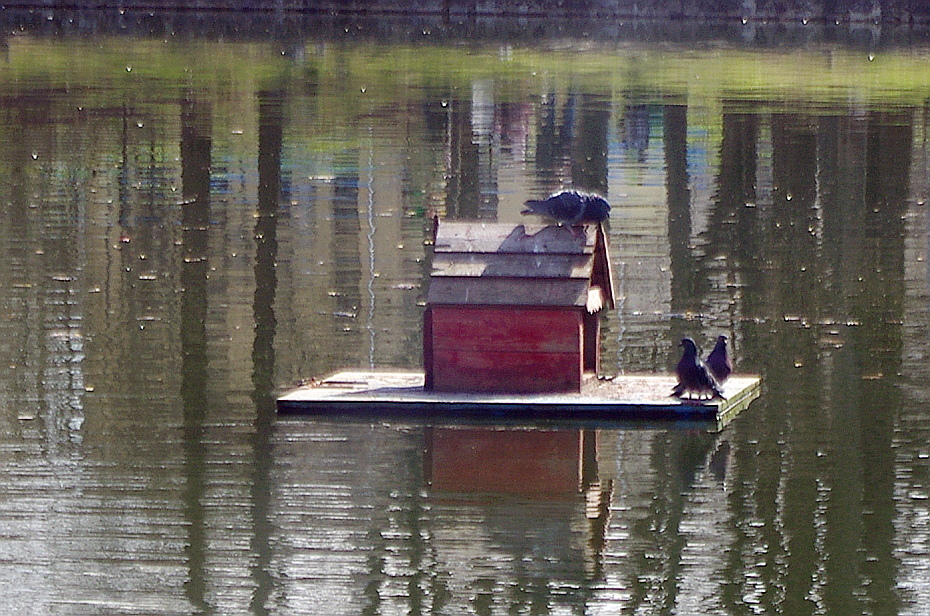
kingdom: Animalia
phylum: Chordata
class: Aves
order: Columbiformes
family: Columbidae
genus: Columba
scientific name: Columba livia
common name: Rock pigeon
